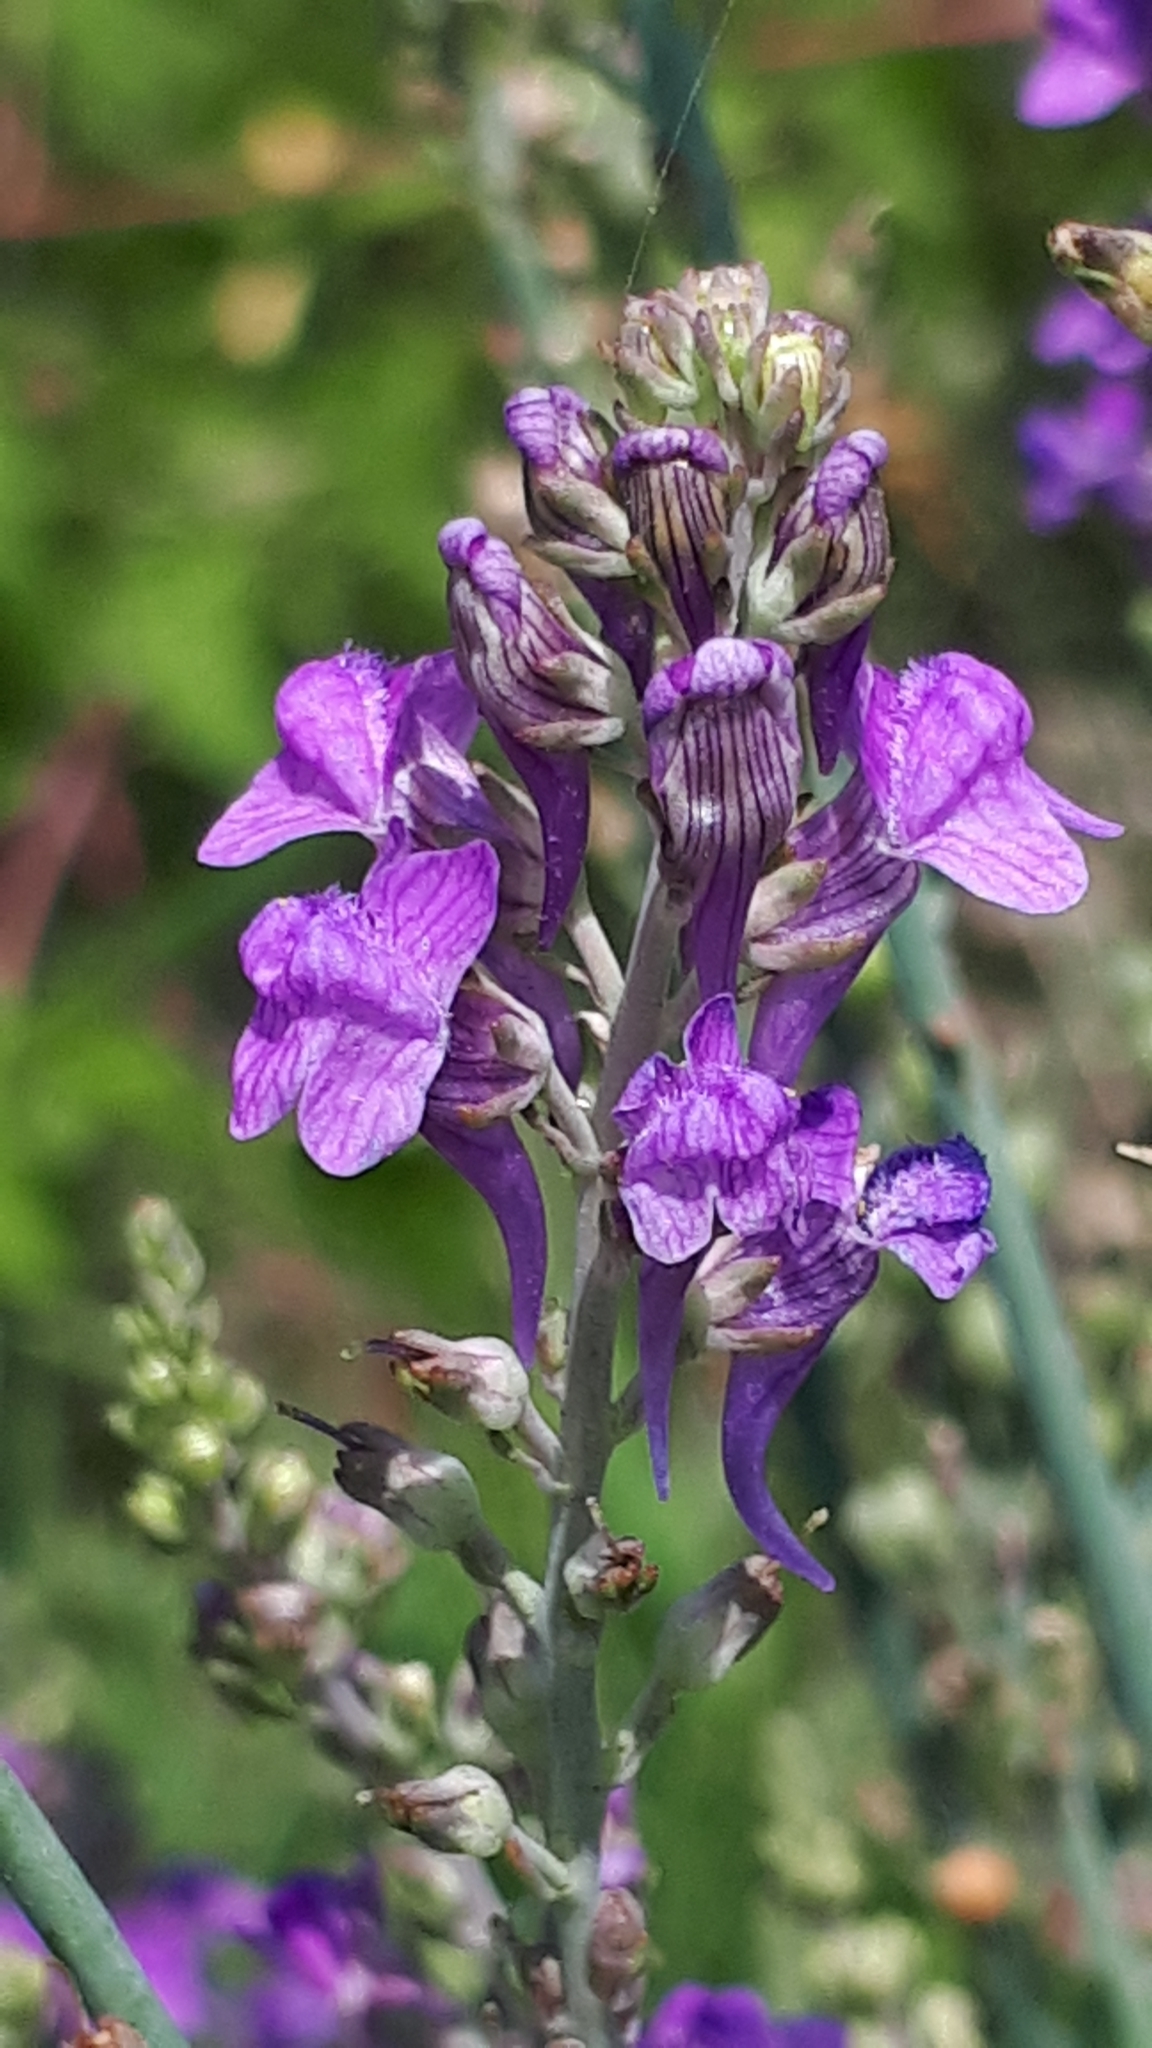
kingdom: Plantae
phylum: Tracheophyta
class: Magnoliopsida
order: Lamiales
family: Plantaginaceae
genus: Linaria
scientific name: Linaria purpurea
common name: Purple toadflax
